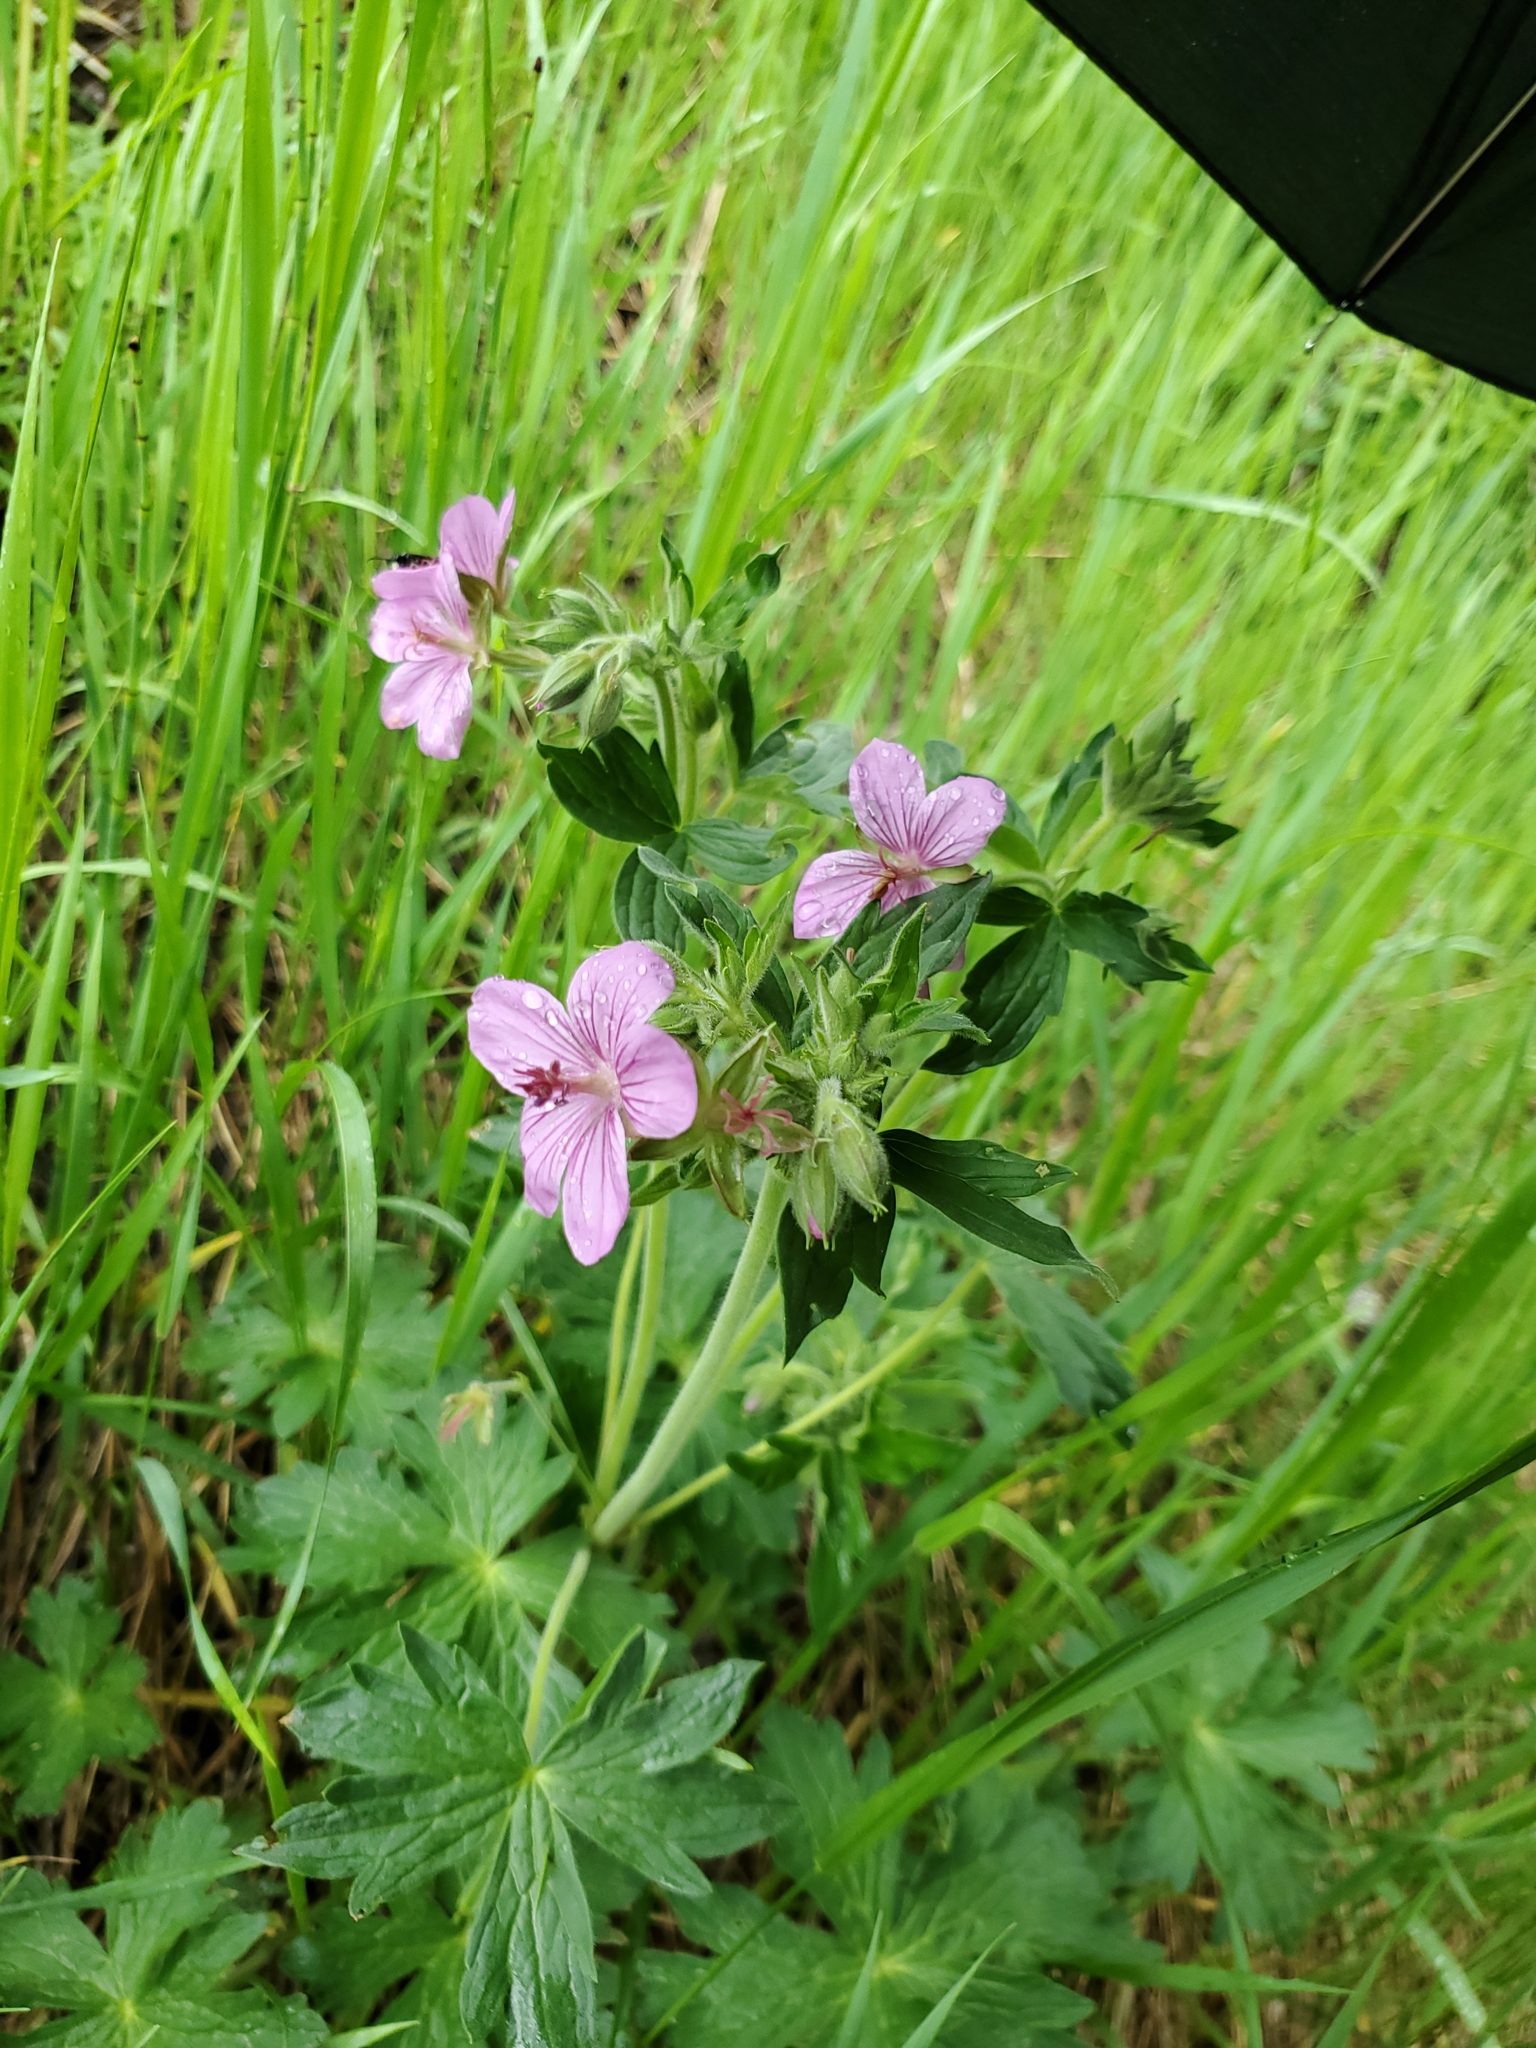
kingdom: Plantae
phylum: Tracheophyta
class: Magnoliopsida
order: Geraniales
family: Geraniaceae
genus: Geranium
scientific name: Geranium viscosissimum
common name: Purple geranium
